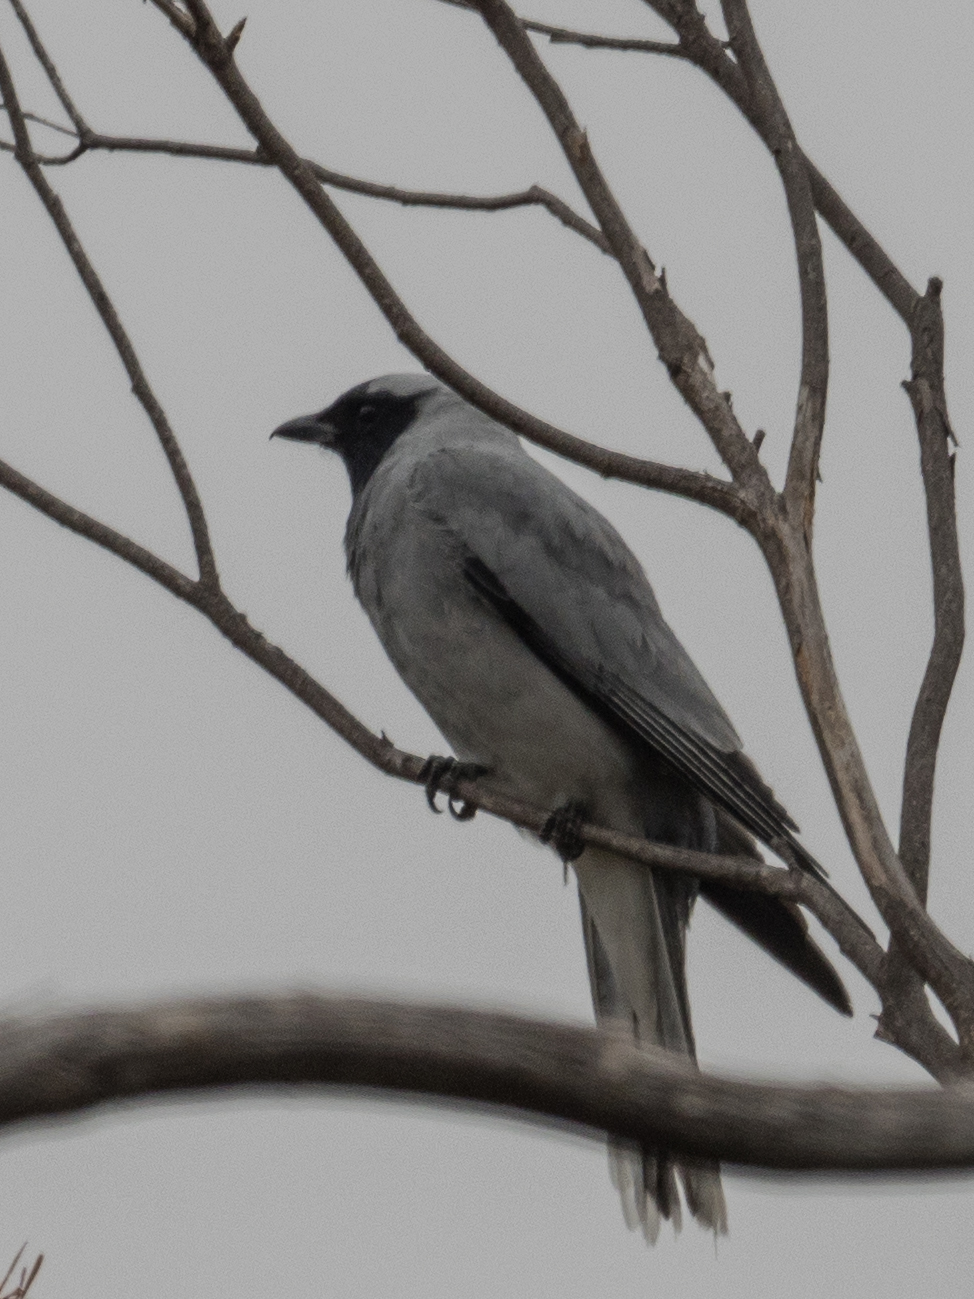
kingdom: Animalia
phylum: Chordata
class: Aves
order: Passeriformes
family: Campephagidae
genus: Coracina
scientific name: Coracina novaehollandiae
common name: Black-faced cuckooshrike
